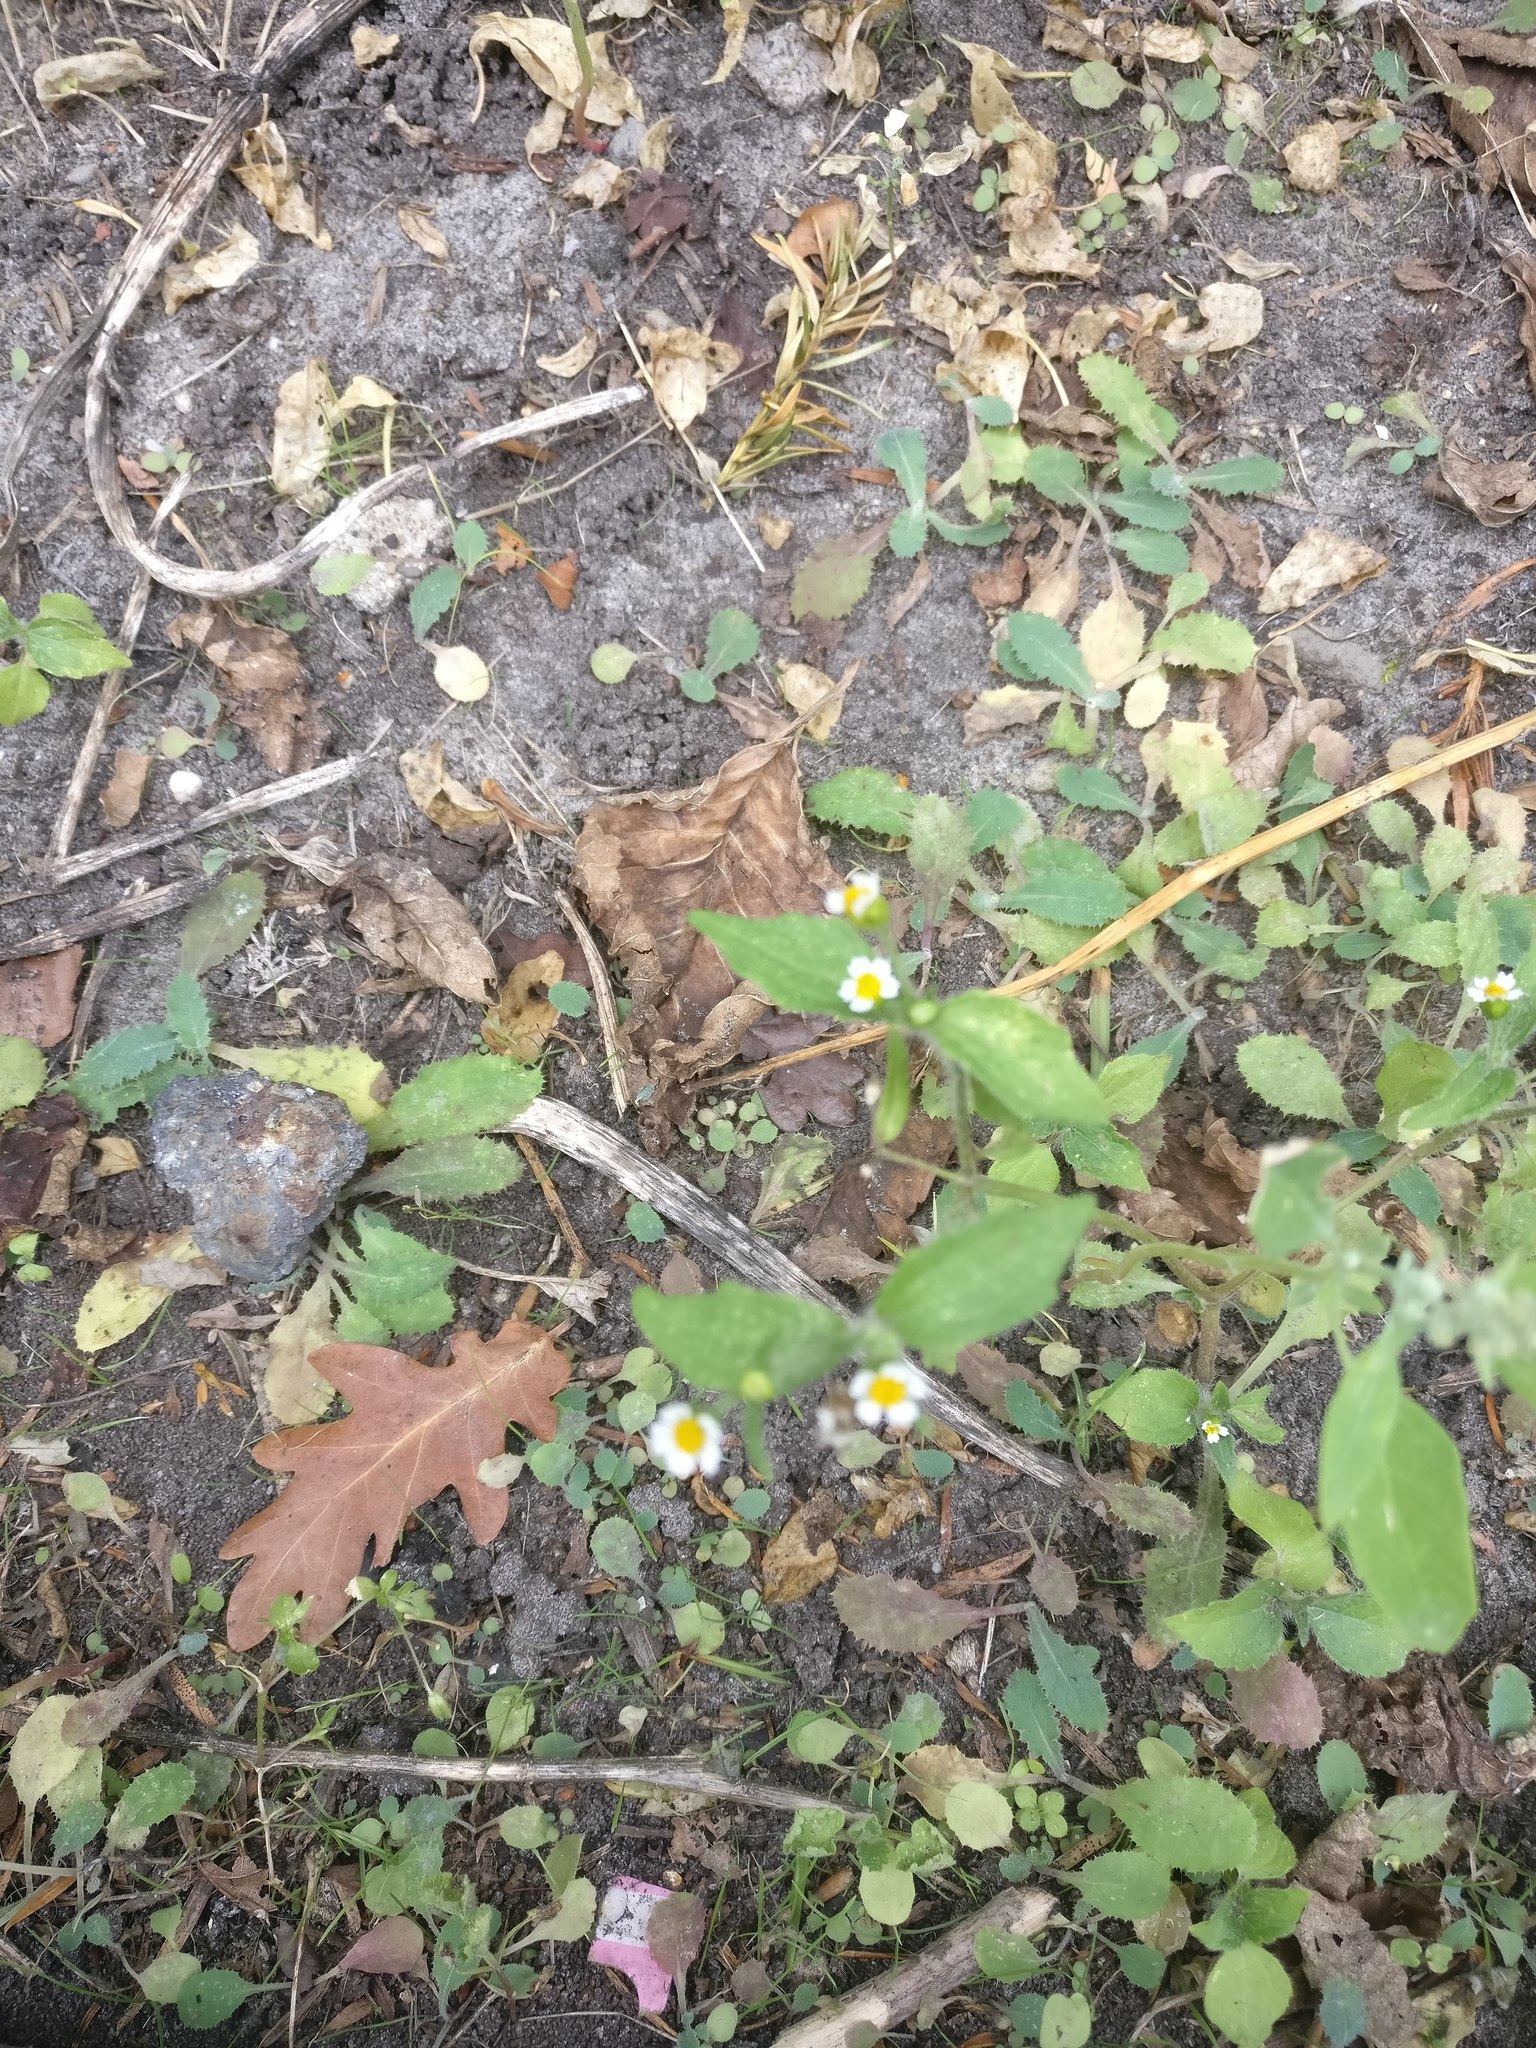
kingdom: Plantae
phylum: Tracheophyta
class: Magnoliopsida
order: Asterales
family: Asteraceae
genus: Galinsoga
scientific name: Galinsoga quadriradiata
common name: Shaggy soldier
